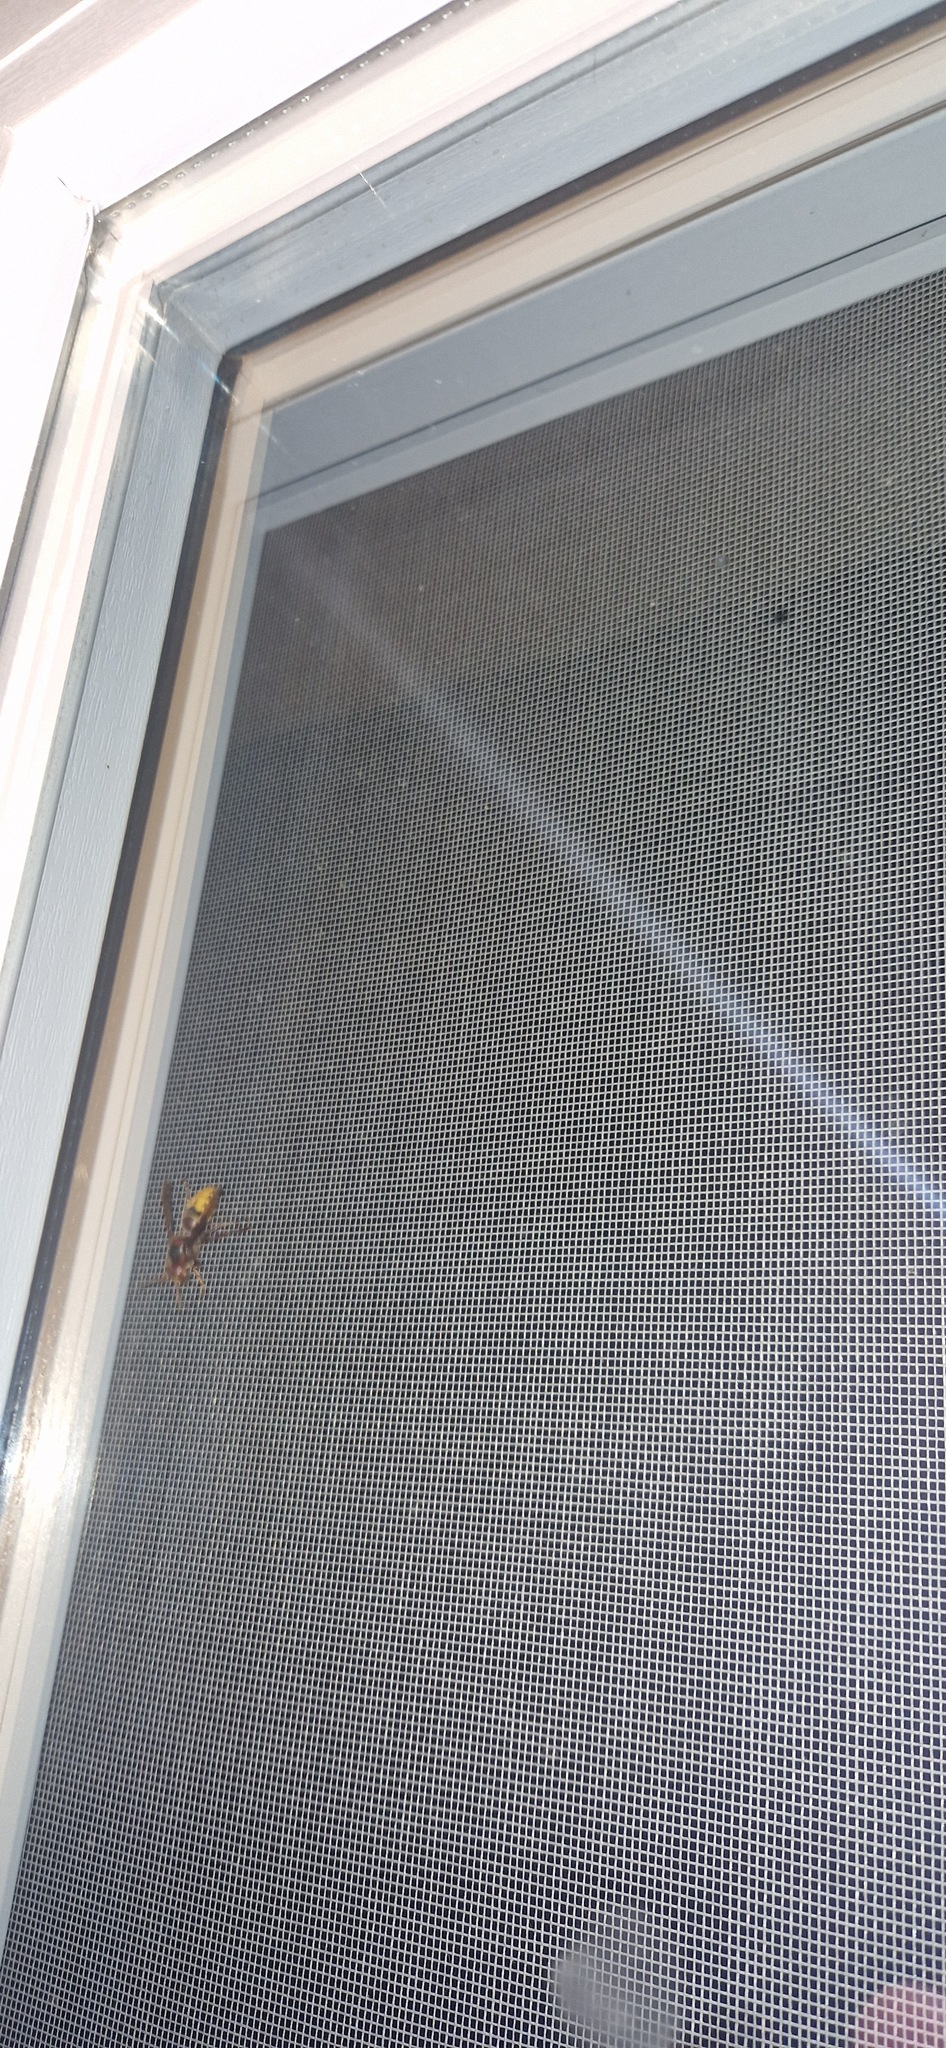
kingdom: Animalia
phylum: Arthropoda
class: Insecta
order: Hymenoptera
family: Vespidae
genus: Vespa
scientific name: Vespa crabro
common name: Hornet
